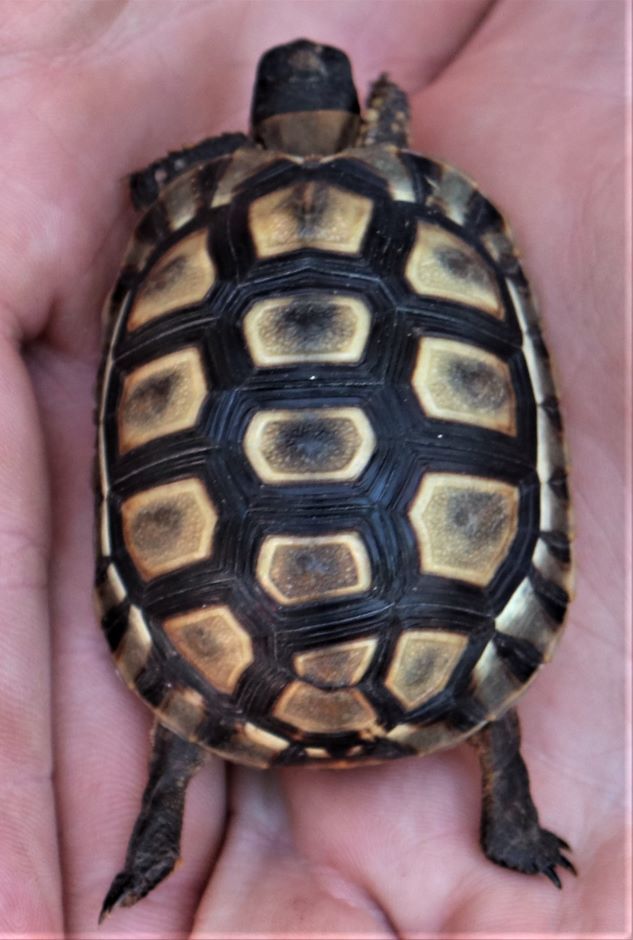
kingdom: Animalia
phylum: Chordata
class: Testudines
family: Testudinidae
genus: Chersina
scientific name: Chersina angulata
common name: South african bowsprit tortoise
